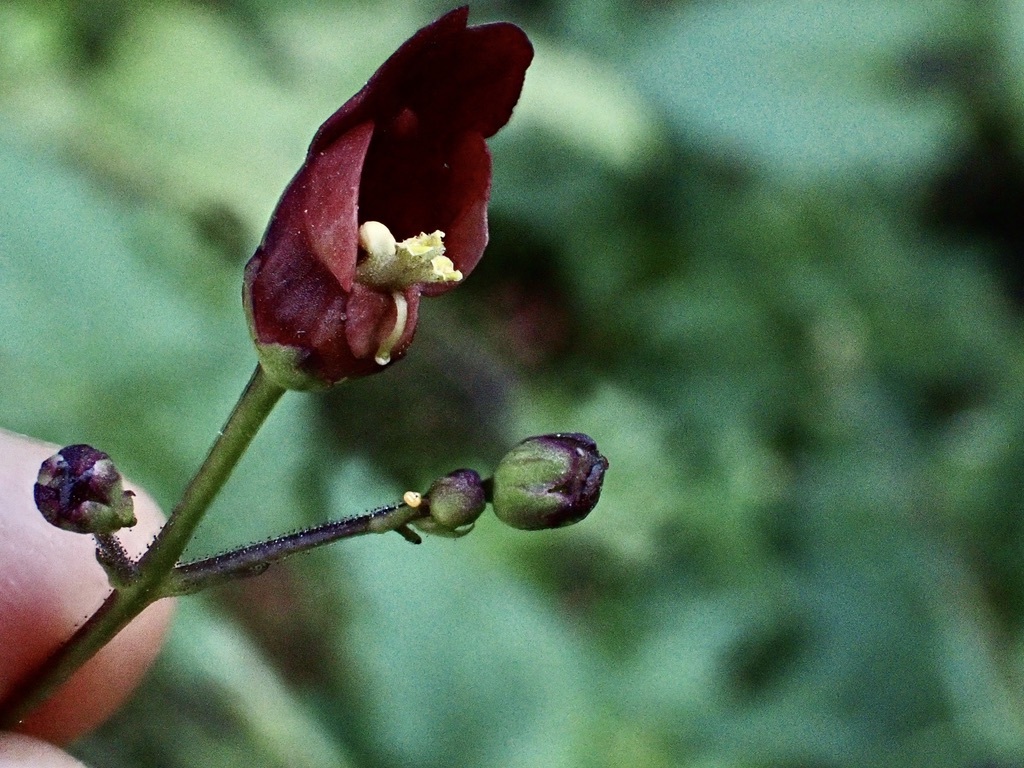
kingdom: Plantae
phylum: Tracheophyta
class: Magnoliopsida
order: Lamiales
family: Scrophulariaceae
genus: Scrophularia
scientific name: Scrophularia californica
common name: California figwort
